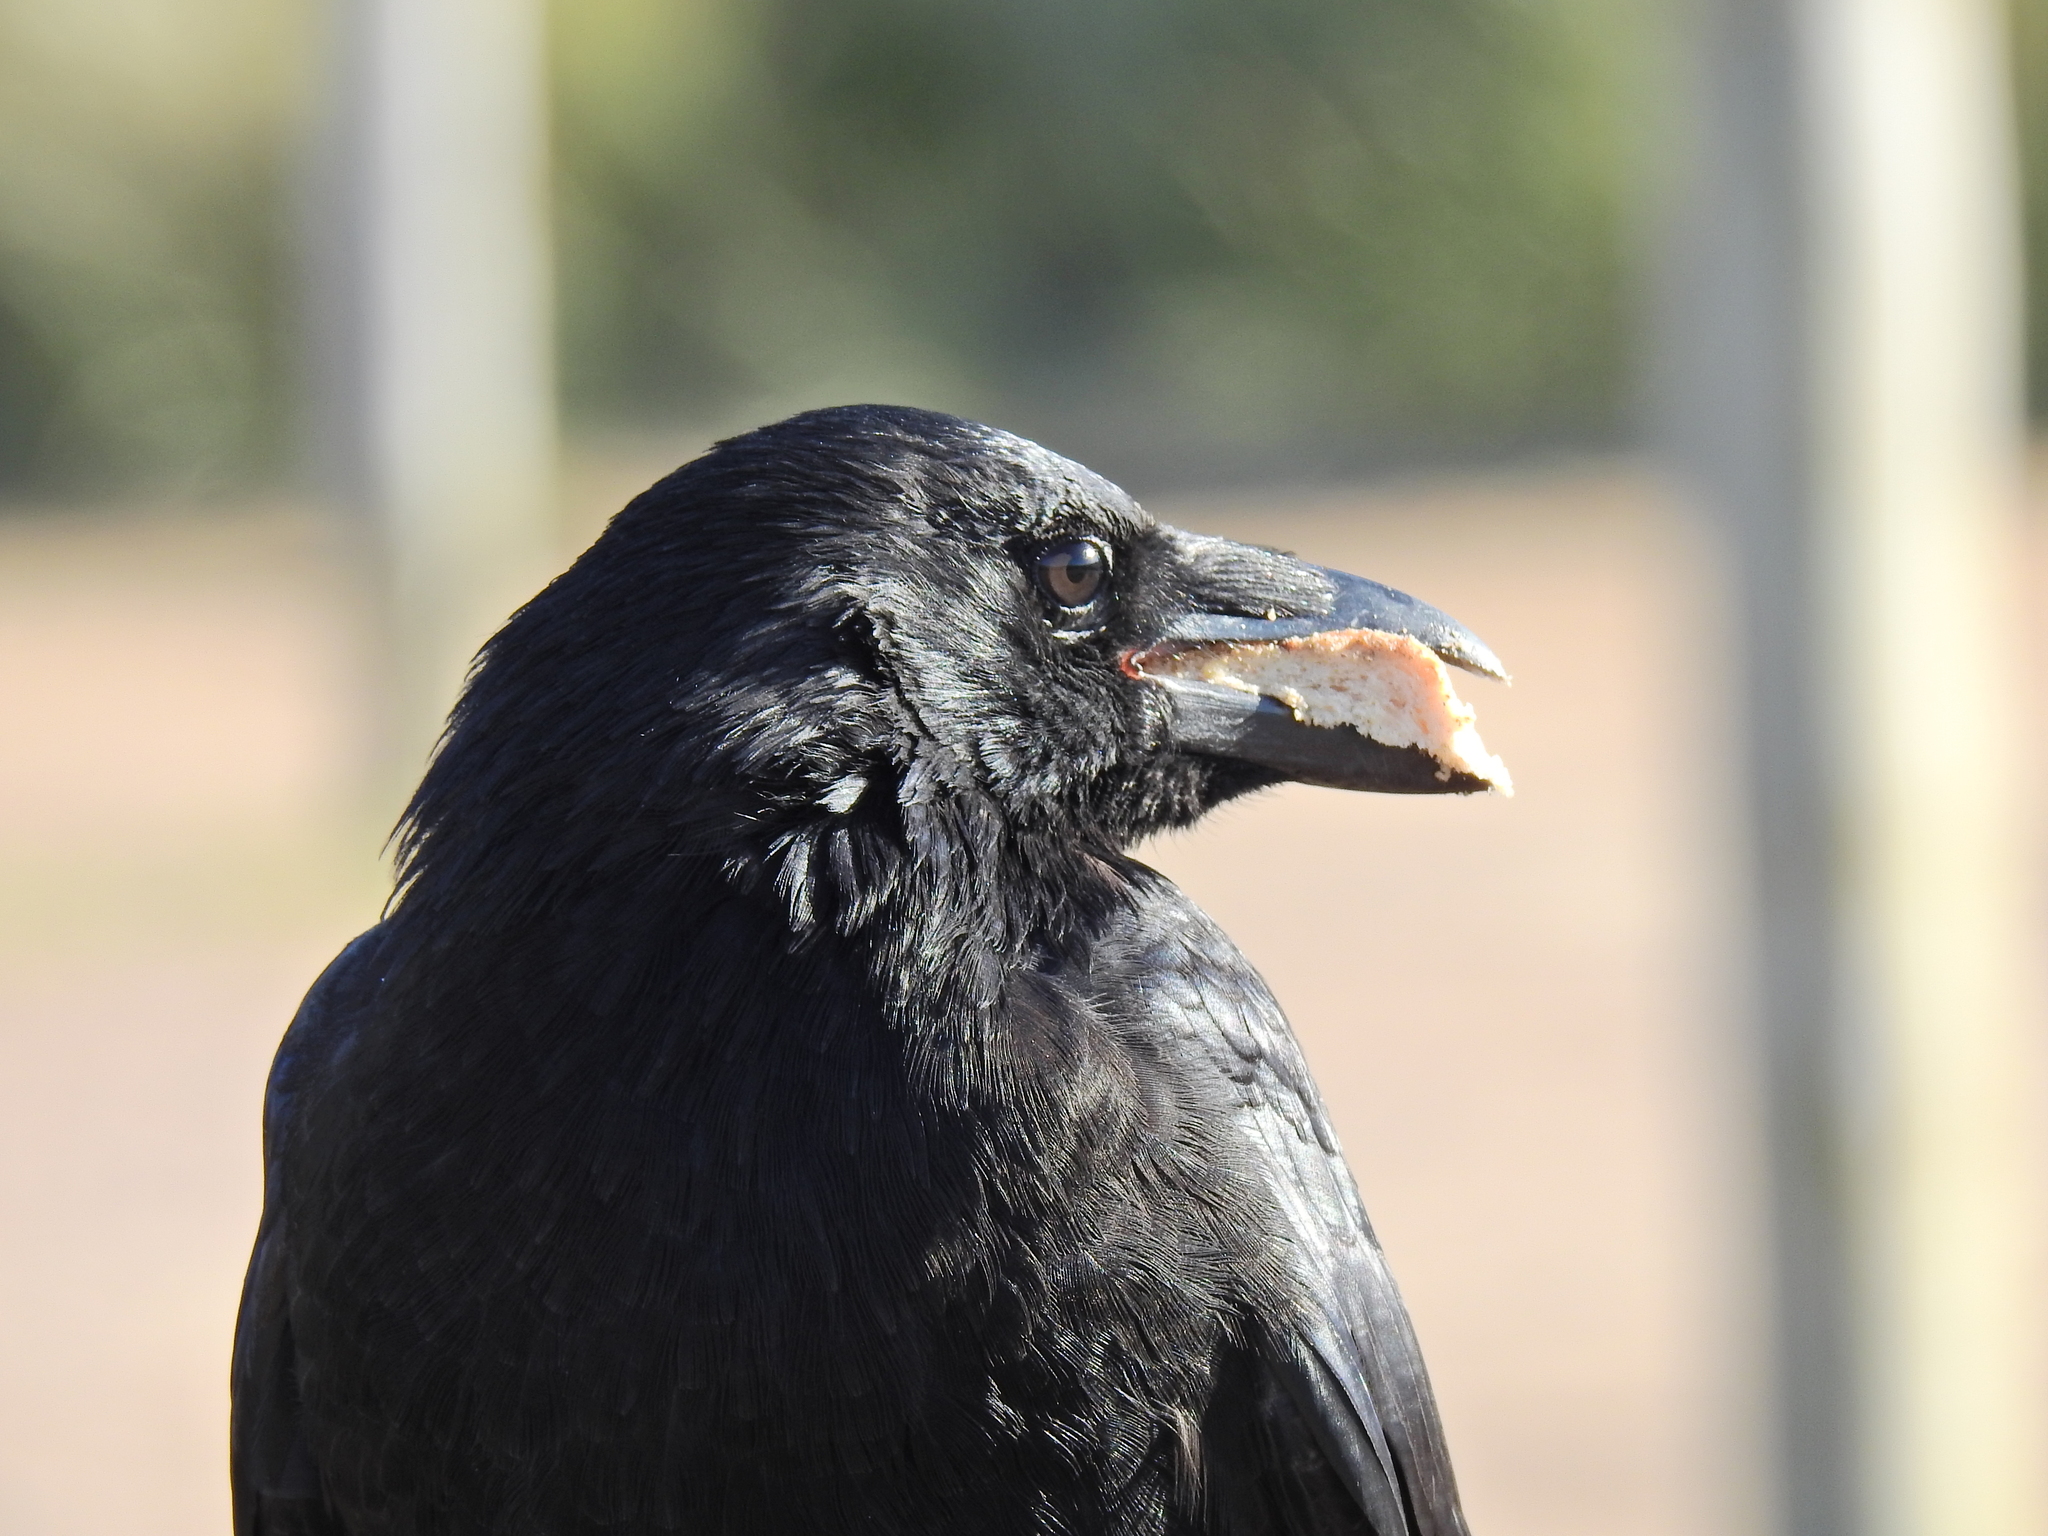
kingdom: Animalia
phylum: Chordata
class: Aves
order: Passeriformes
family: Corvidae
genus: Corvus
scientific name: Corvus corone
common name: Carrion crow
